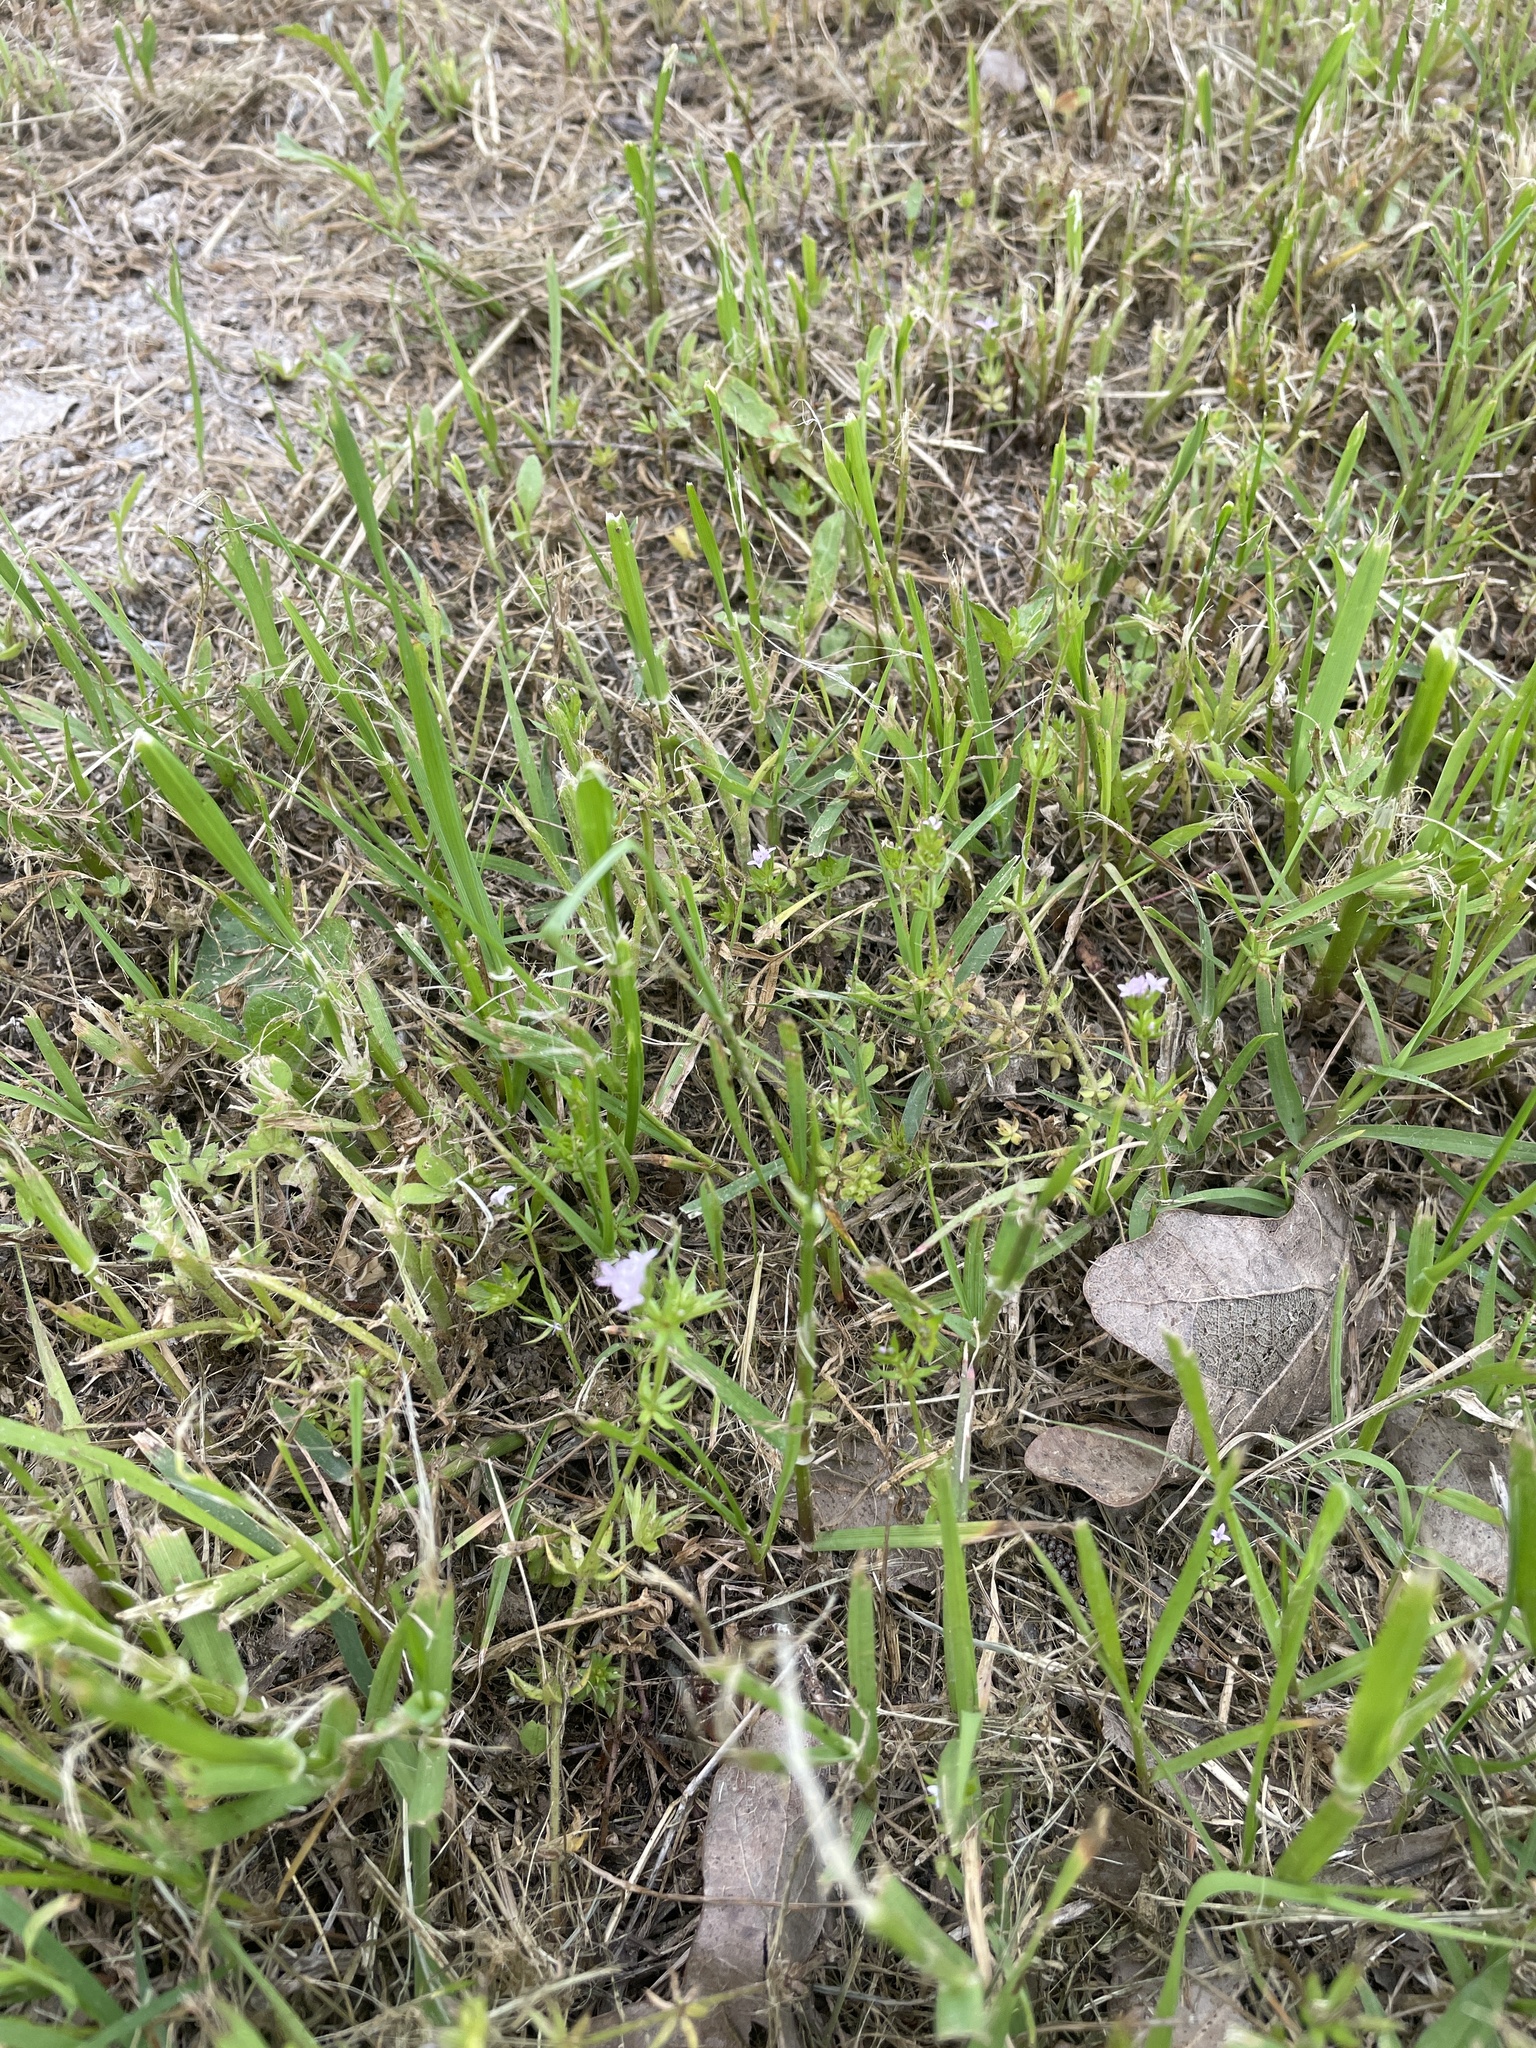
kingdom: Plantae
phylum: Tracheophyta
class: Magnoliopsida
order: Gentianales
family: Rubiaceae
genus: Sherardia
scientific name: Sherardia arvensis
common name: Field madder
